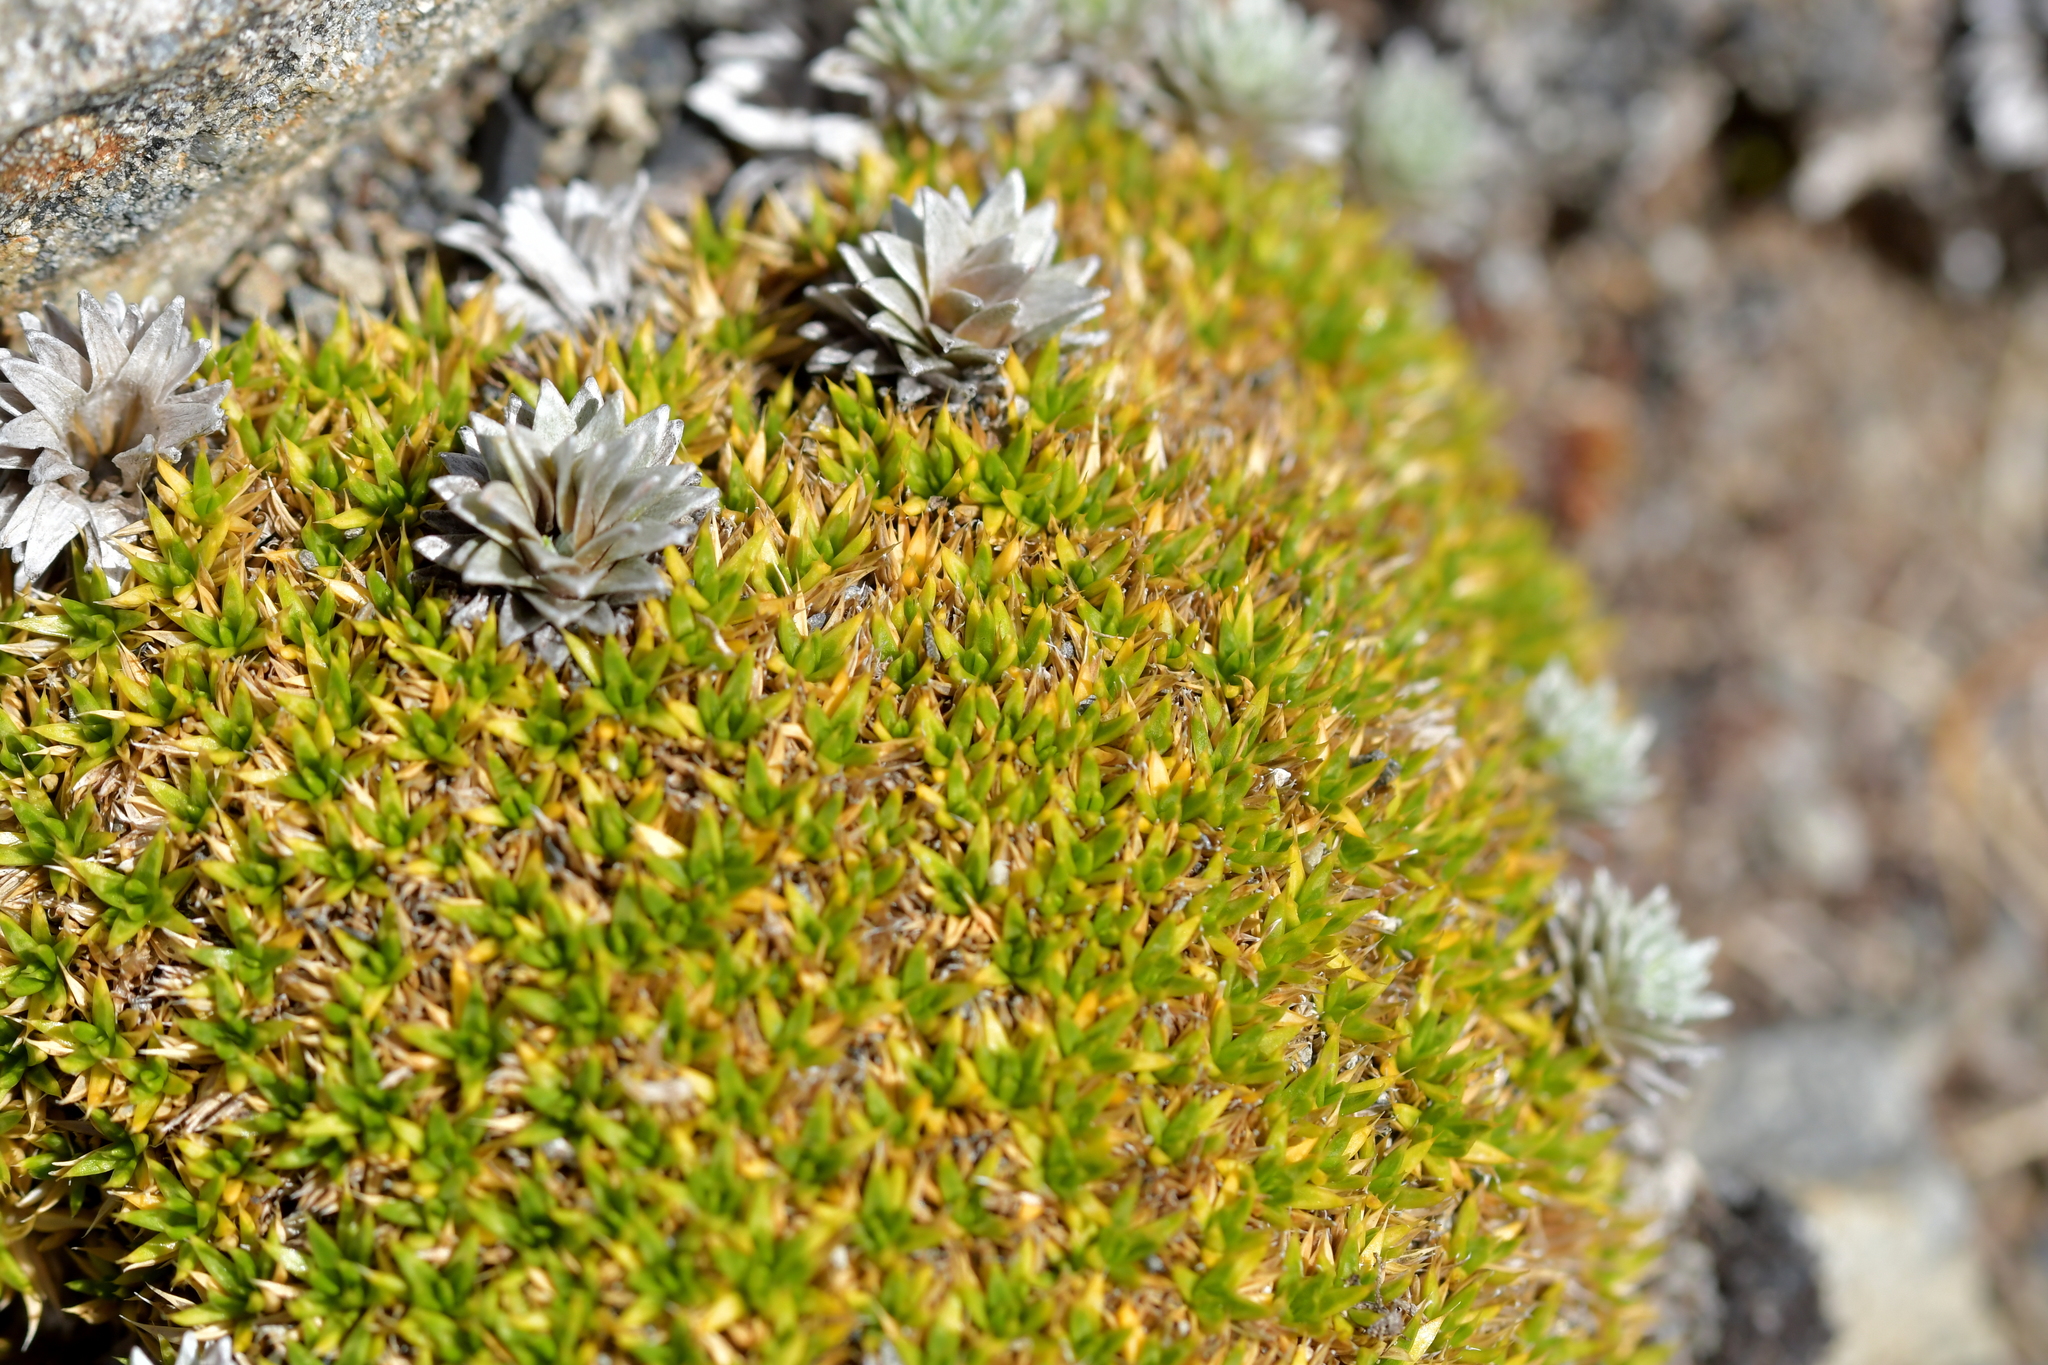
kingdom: Plantae
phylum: Tracheophyta
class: Magnoliopsida
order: Caryophyllales
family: Caryophyllaceae
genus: Colobanthus
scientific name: Colobanthus buchananii
